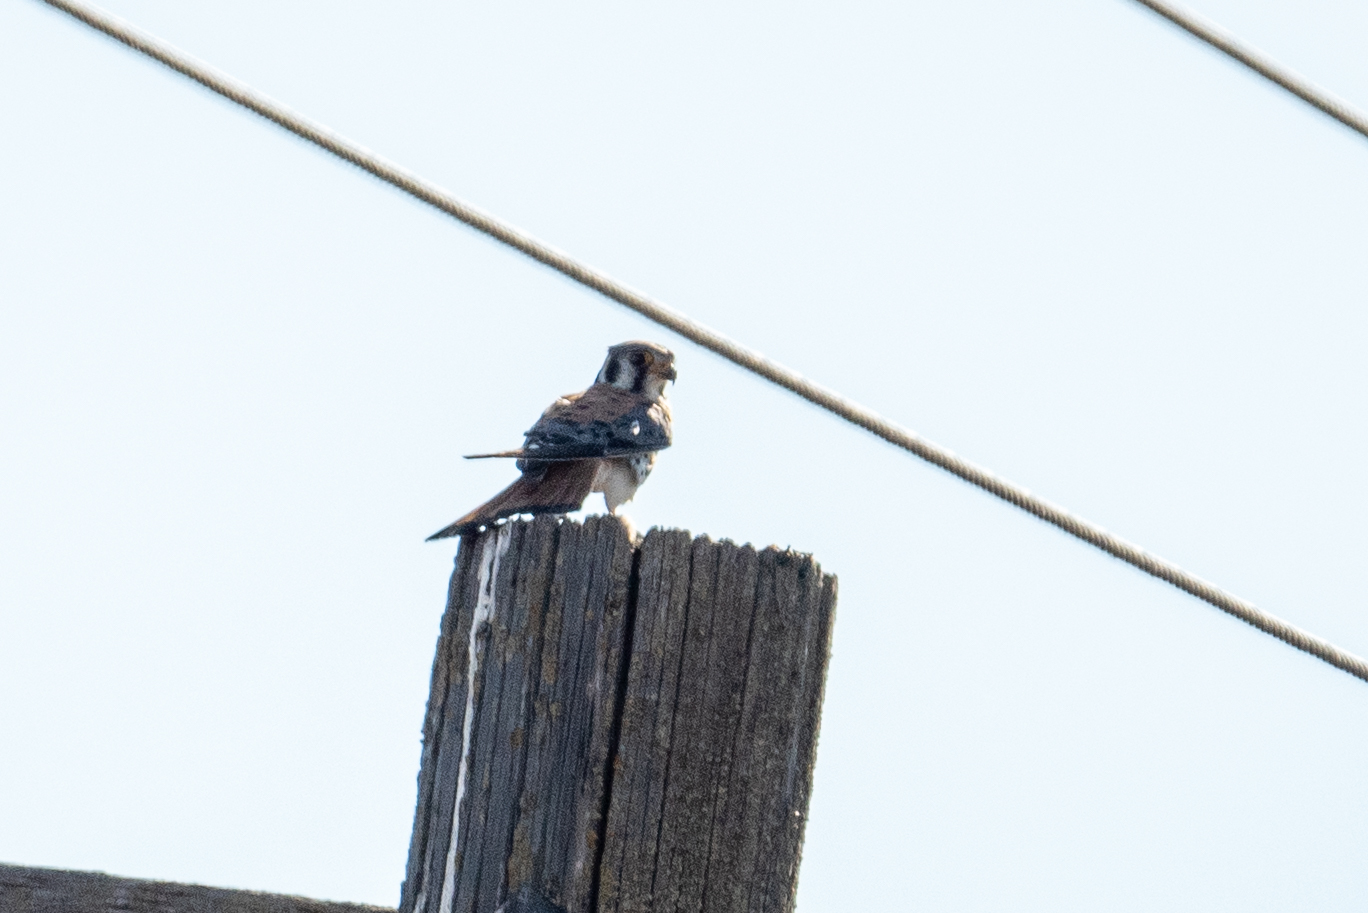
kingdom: Animalia
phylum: Chordata
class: Aves
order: Falconiformes
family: Falconidae
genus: Falco
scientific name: Falco sparverius
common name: American kestrel
